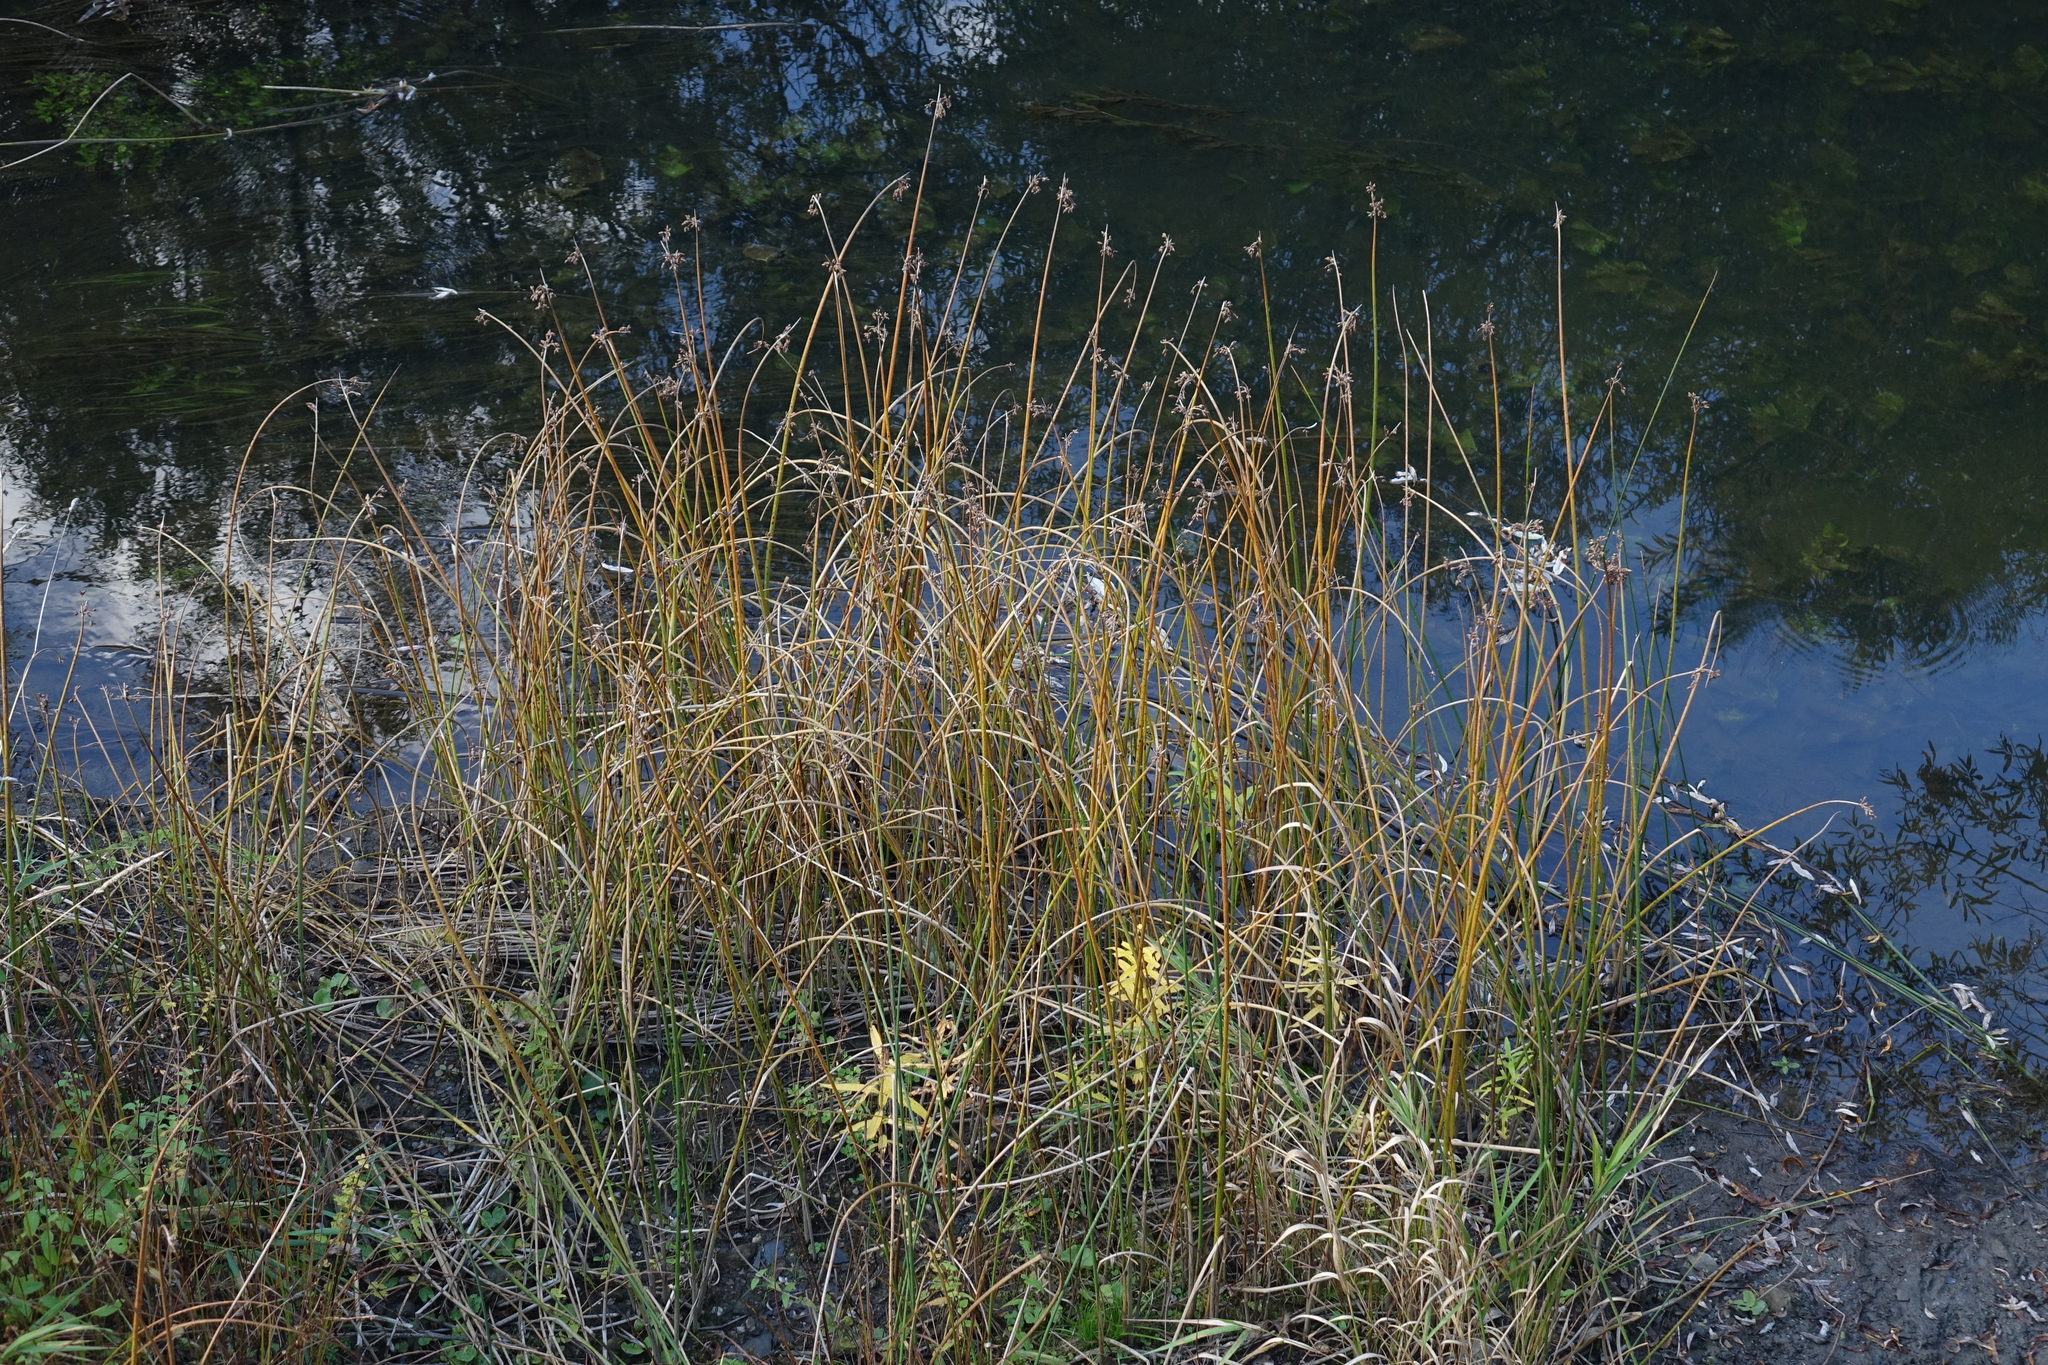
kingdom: Plantae
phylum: Tracheophyta
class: Liliopsida
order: Poales
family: Cyperaceae
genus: Schoenoplectus
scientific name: Schoenoplectus lacustris
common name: Common club-rush
